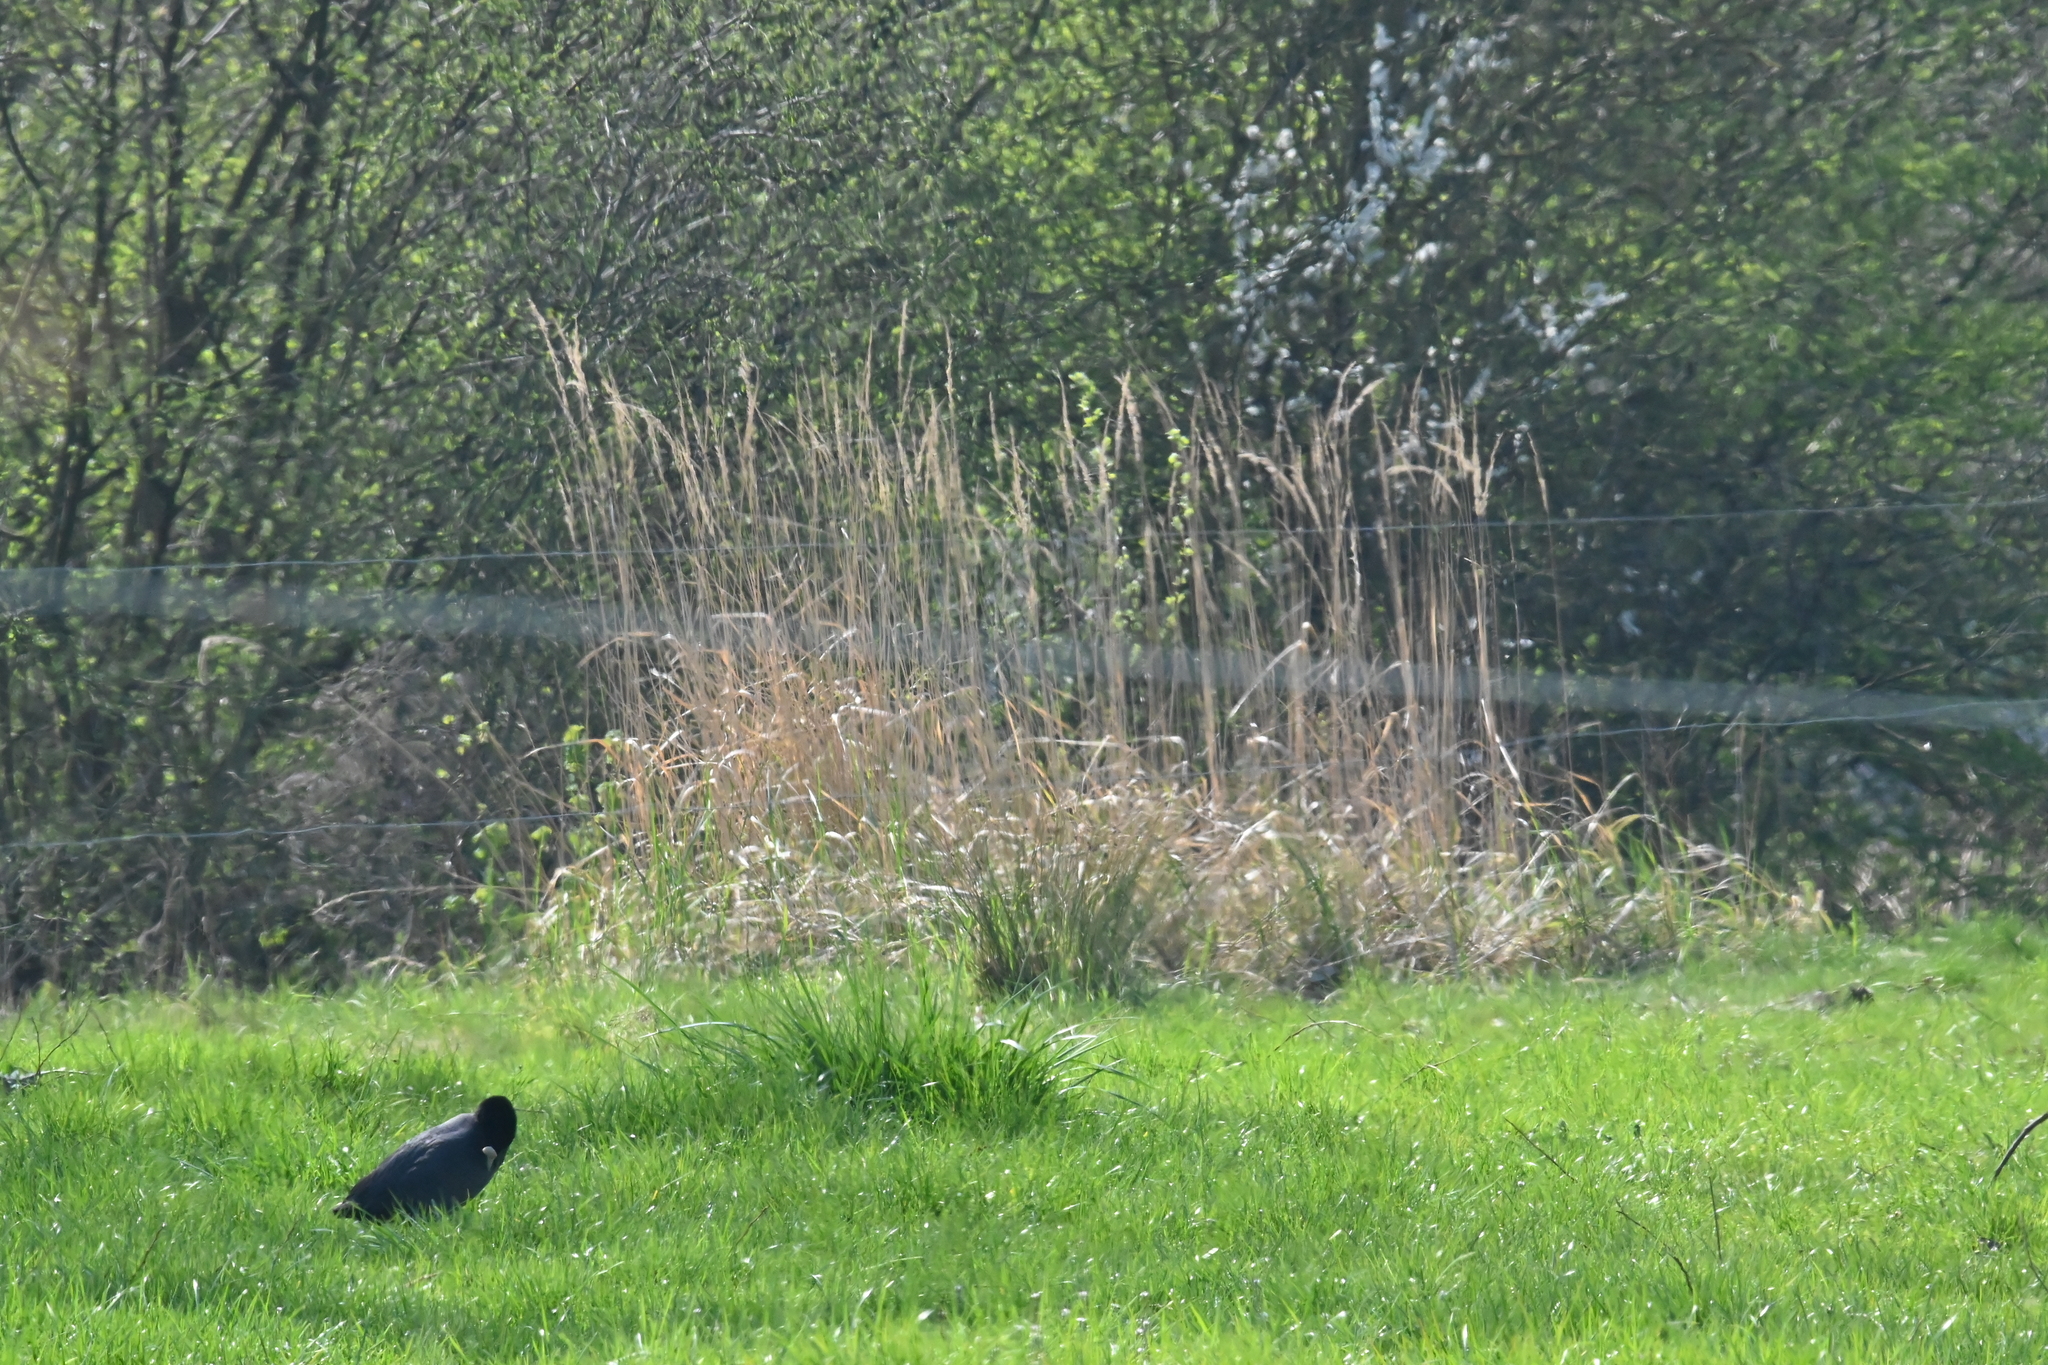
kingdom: Animalia
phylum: Chordata
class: Aves
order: Gruiformes
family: Rallidae
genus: Fulica
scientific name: Fulica atra
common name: Eurasian coot
